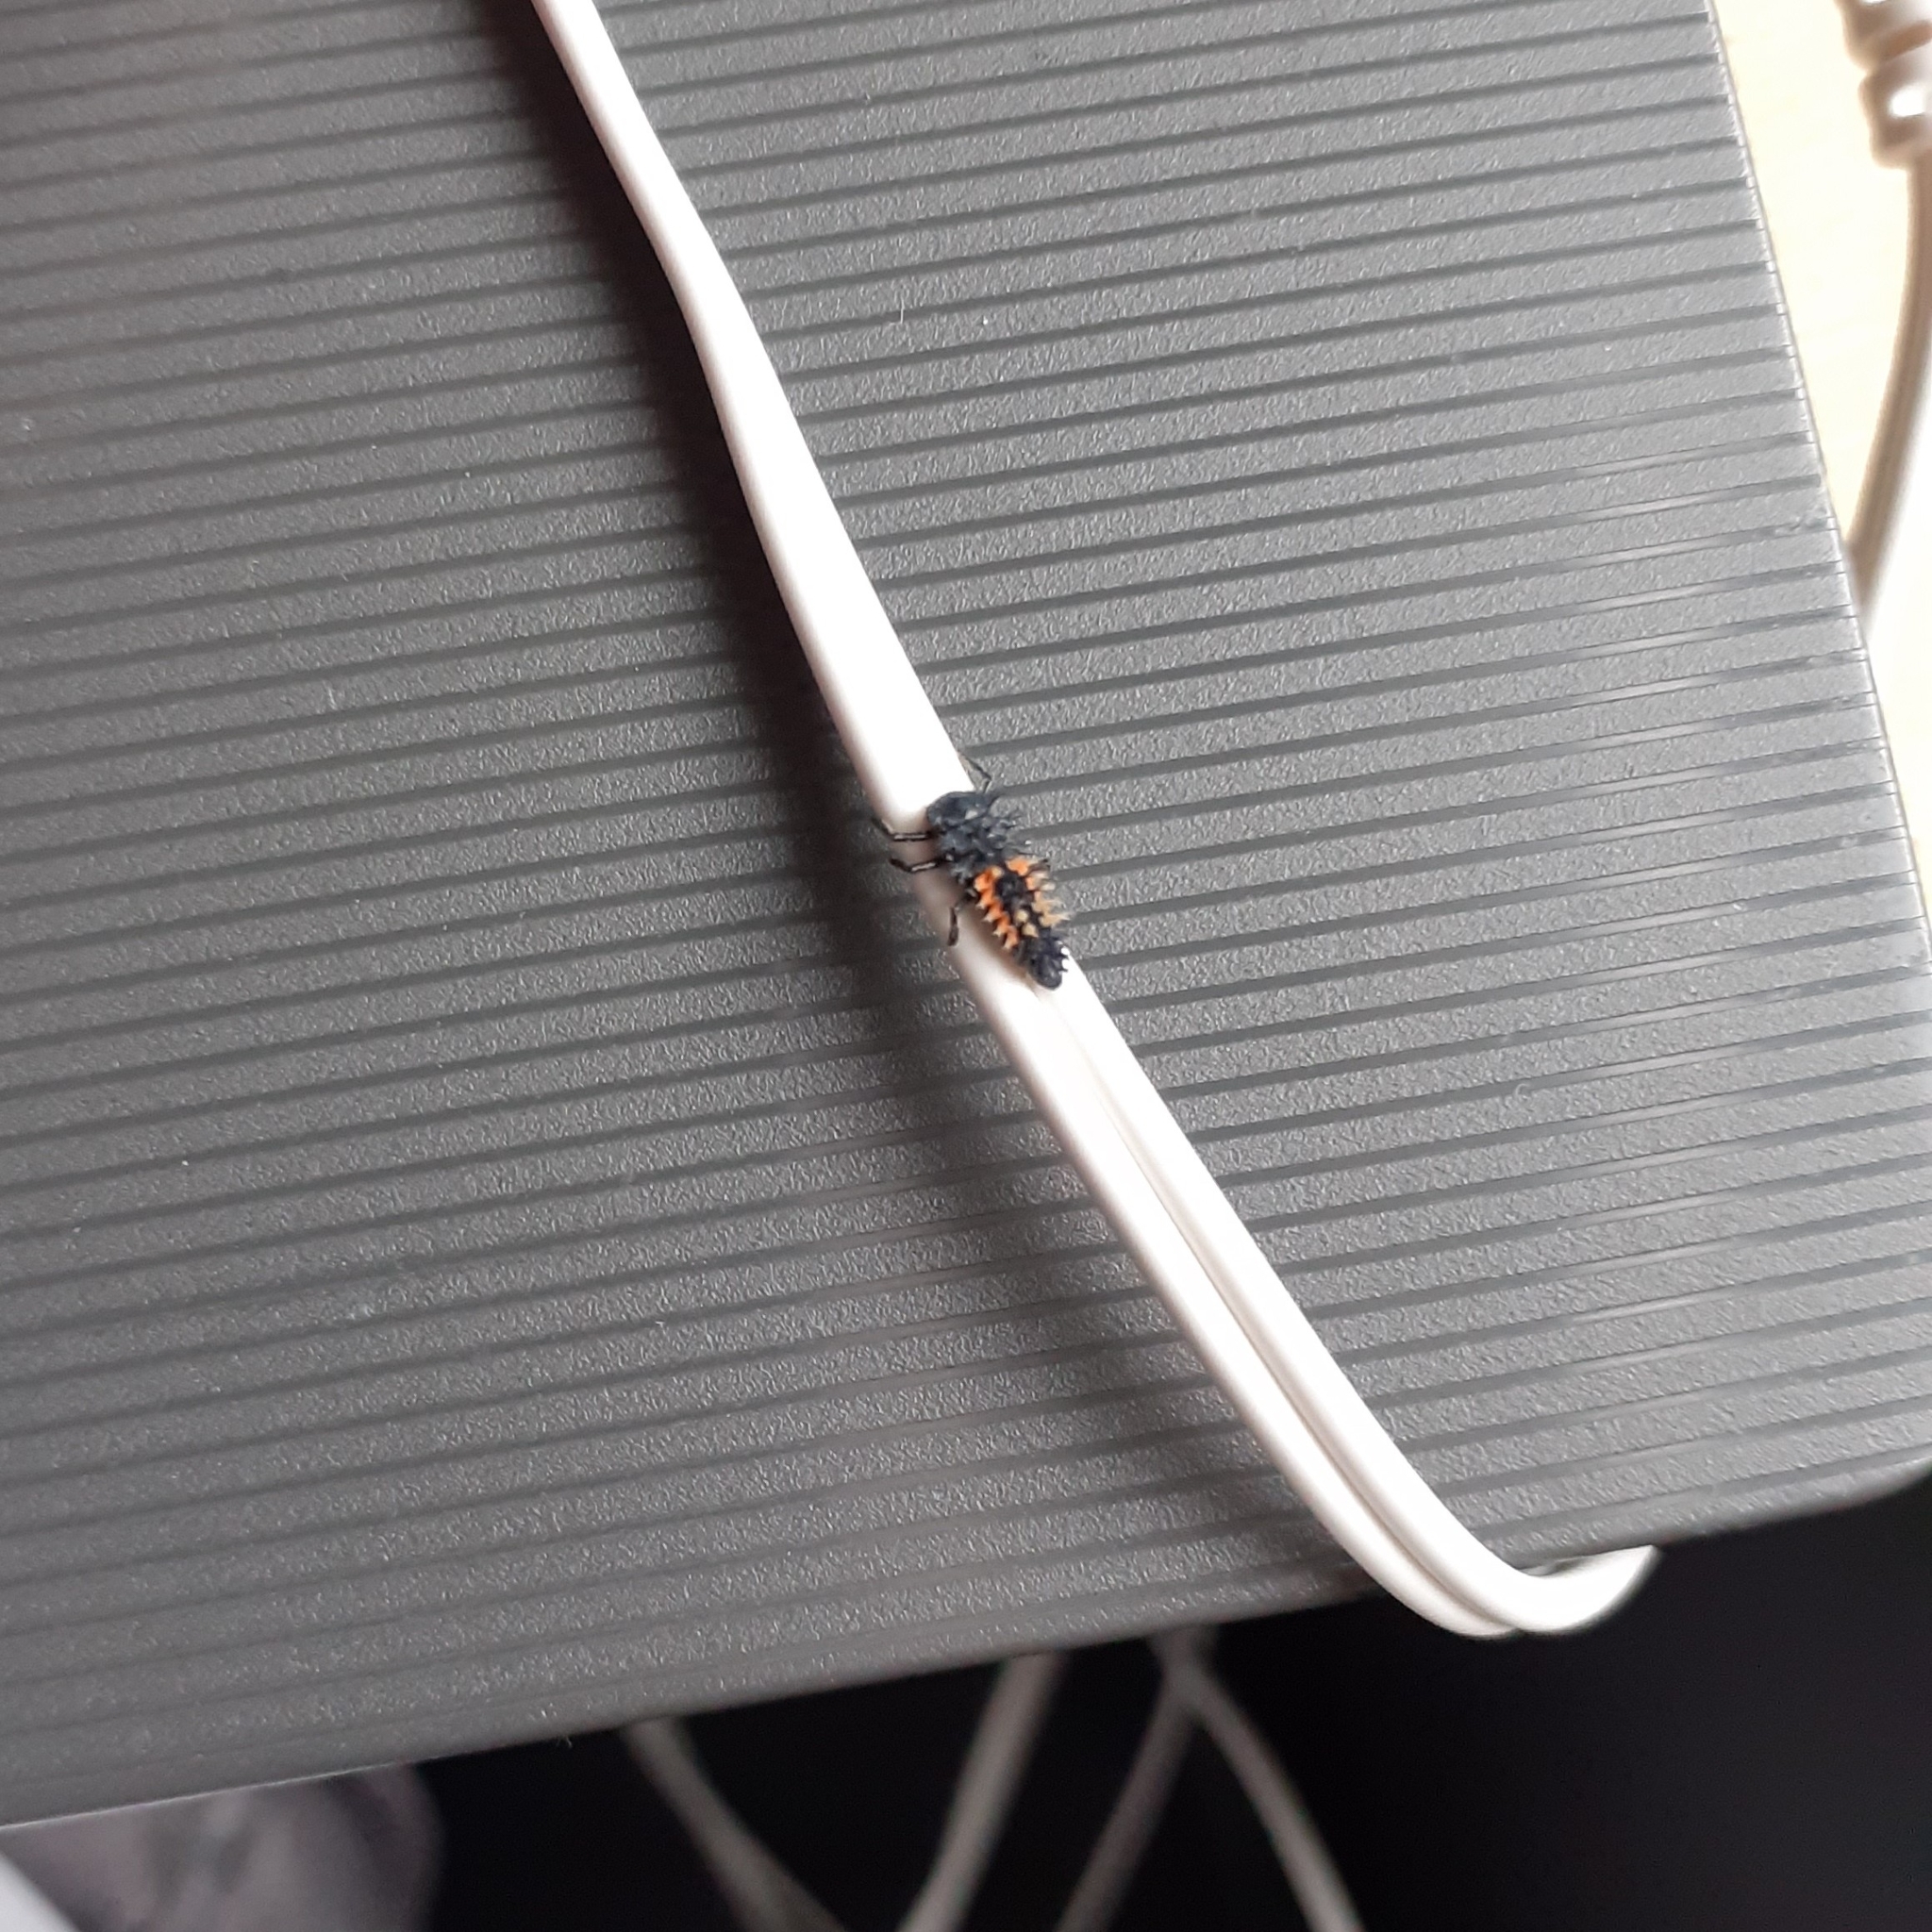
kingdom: Animalia
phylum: Arthropoda
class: Insecta
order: Coleoptera
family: Coccinellidae
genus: Harmonia
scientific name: Harmonia axyridis
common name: Harlequin ladybird
